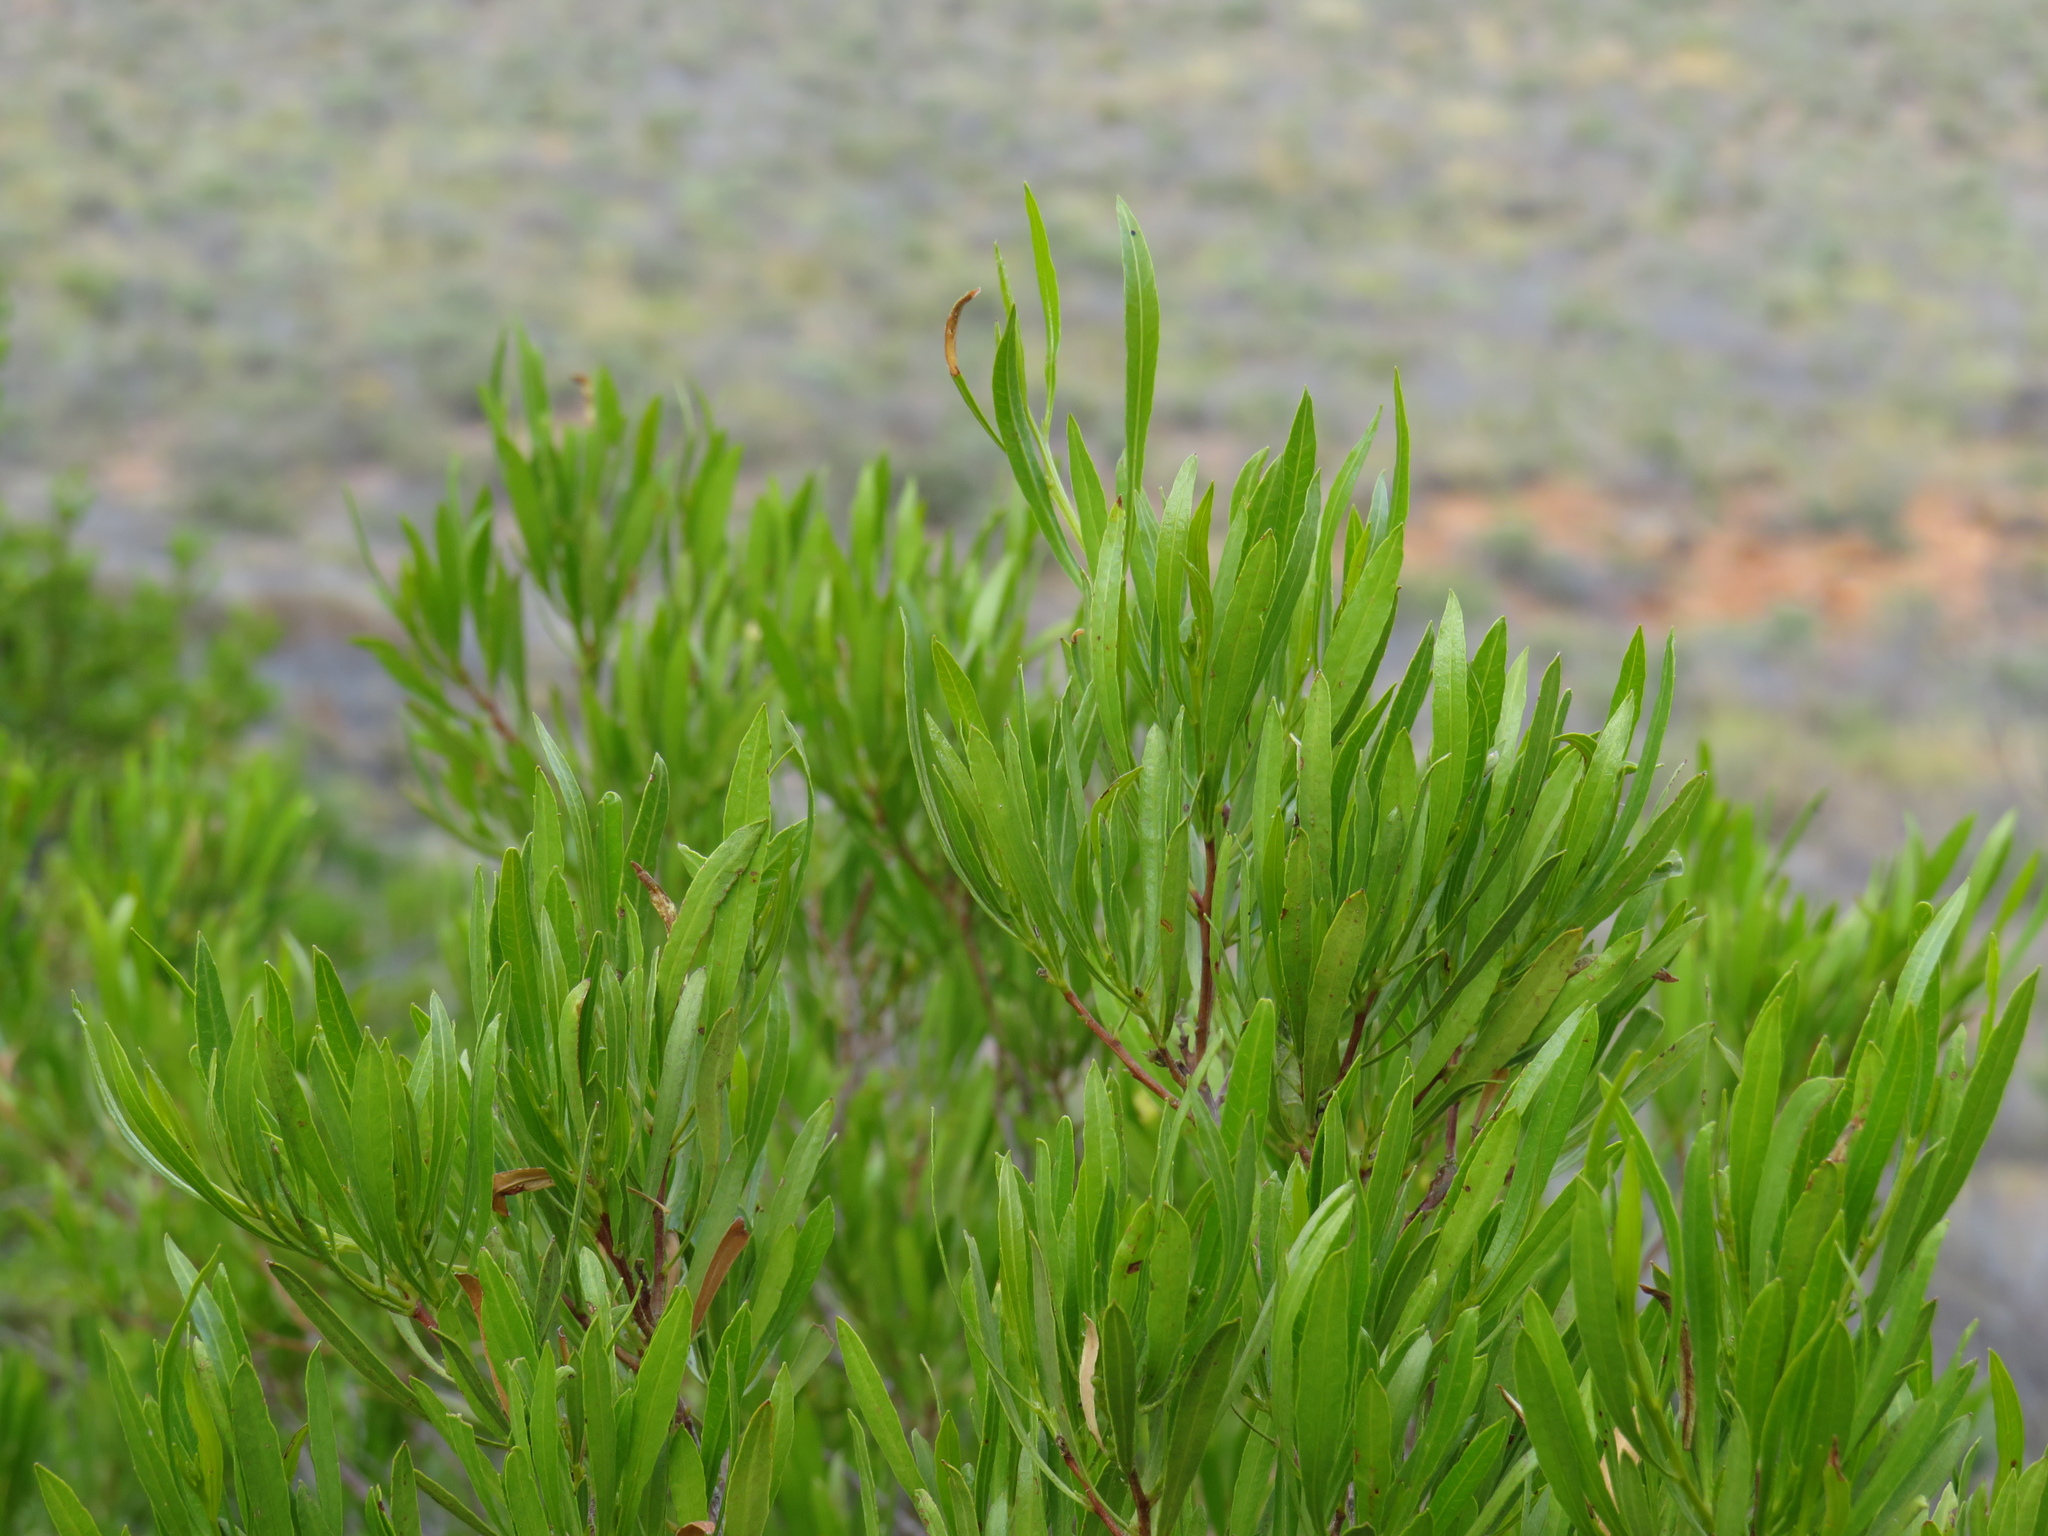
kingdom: Plantae
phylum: Tracheophyta
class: Magnoliopsida
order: Sapindales
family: Sapindaceae
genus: Dodonaea
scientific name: Dodonaea viscosa
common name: Hopbush
